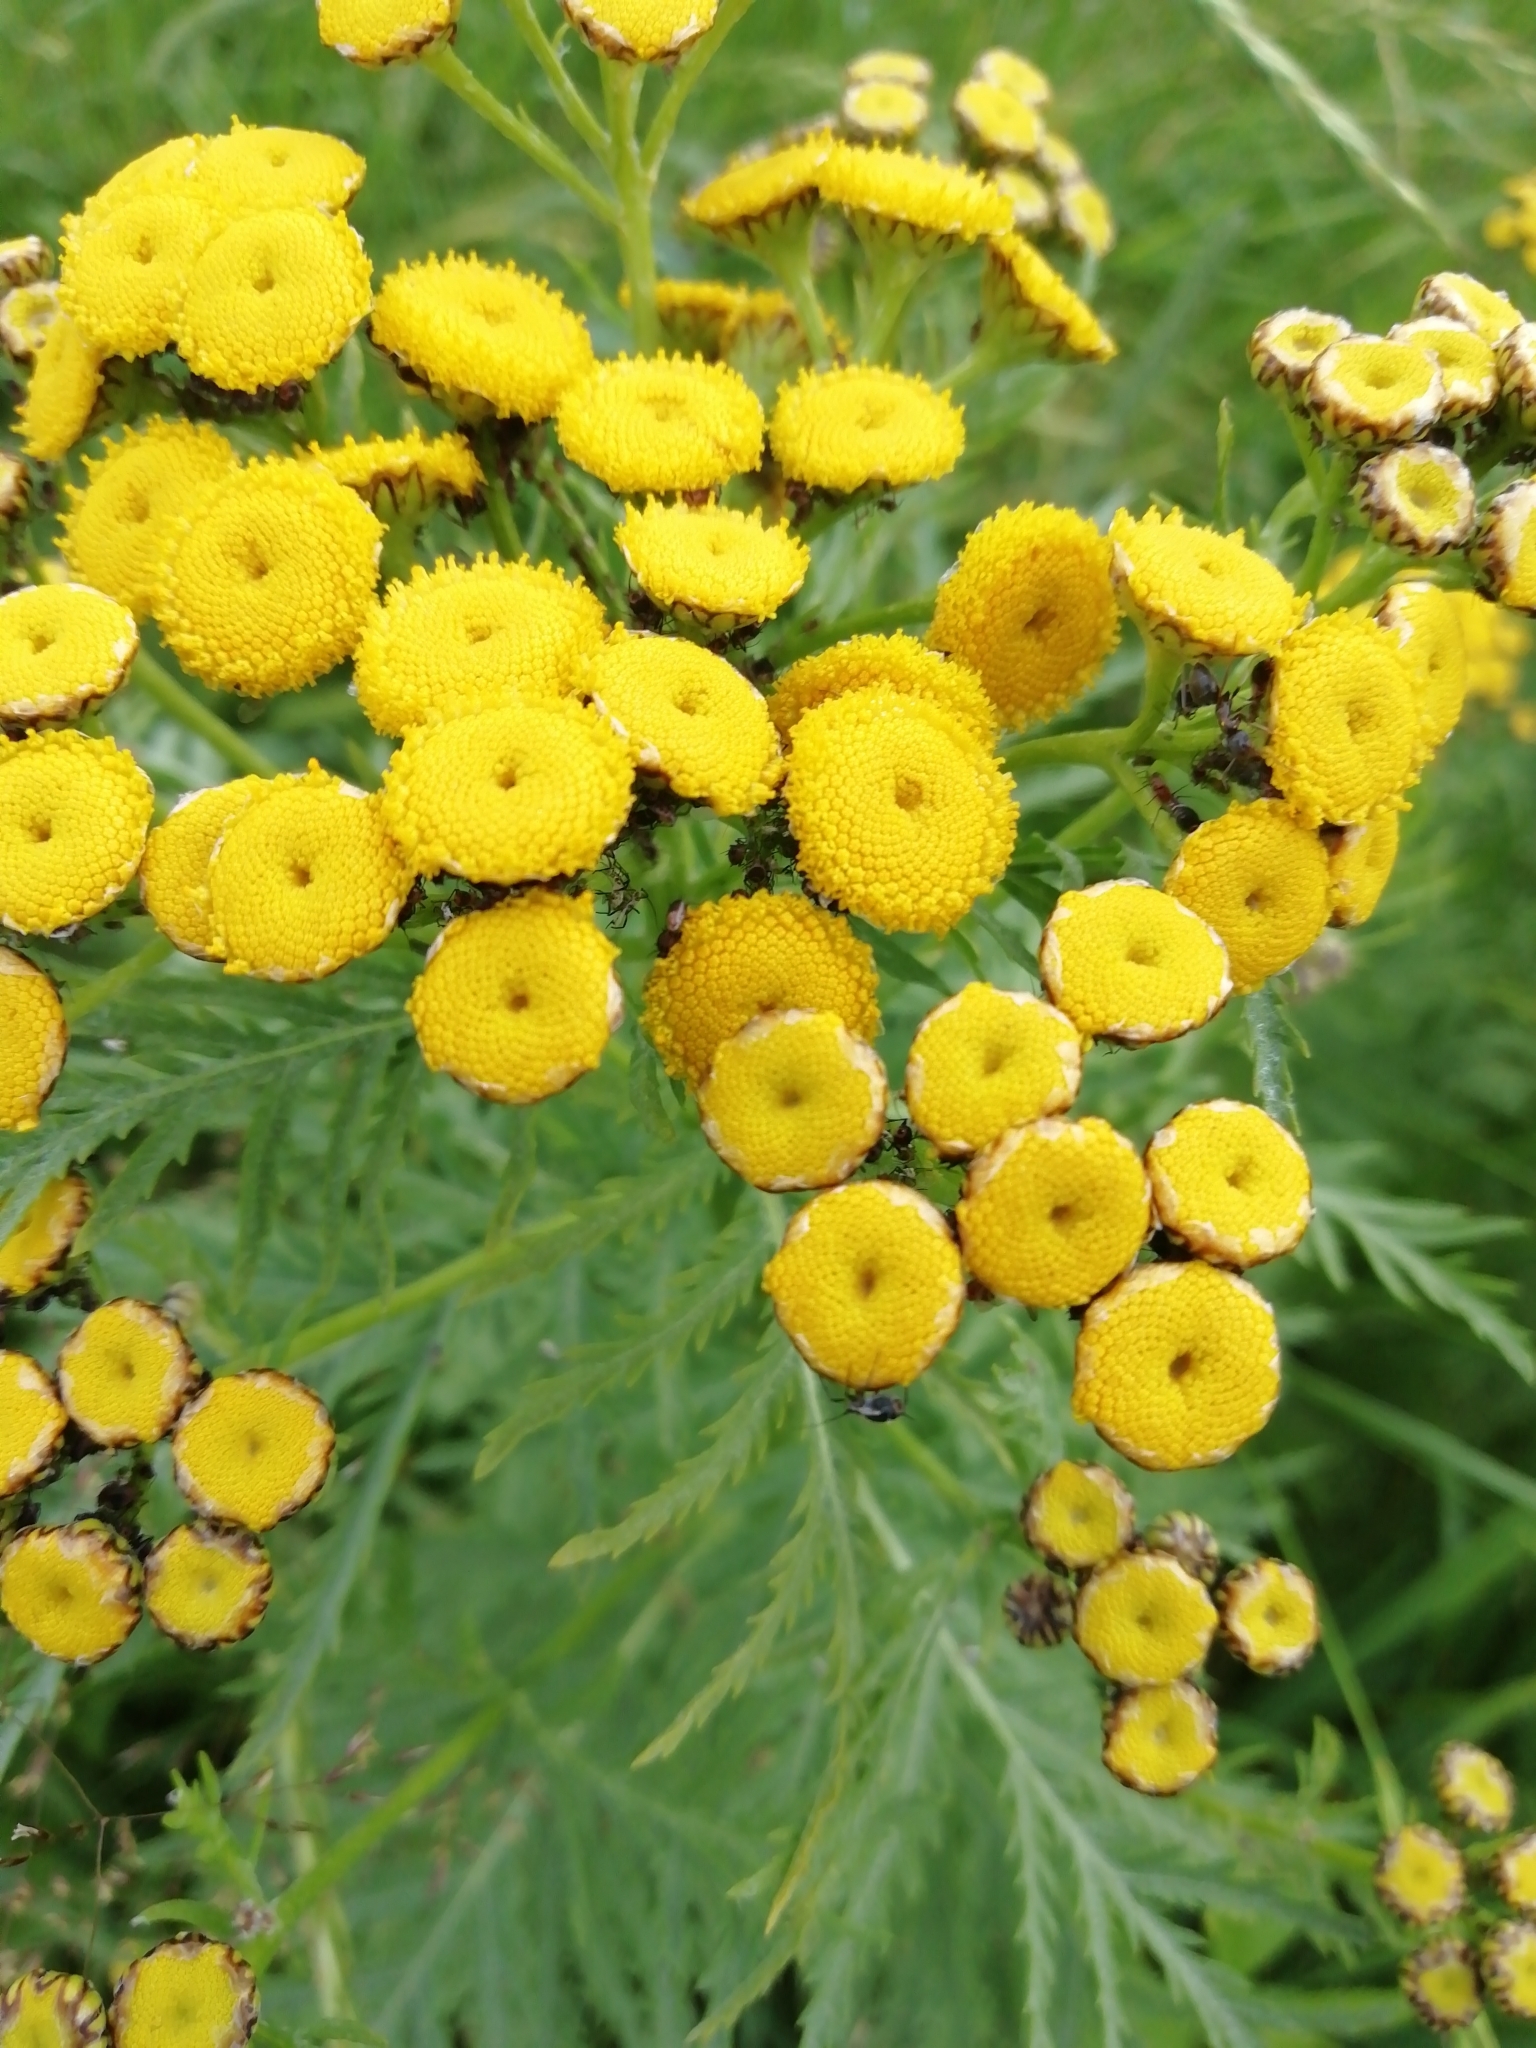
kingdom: Plantae
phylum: Tracheophyta
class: Magnoliopsida
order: Asterales
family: Asteraceae
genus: Tanacetum
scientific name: Tanacetum vulgare
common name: Common tansy
